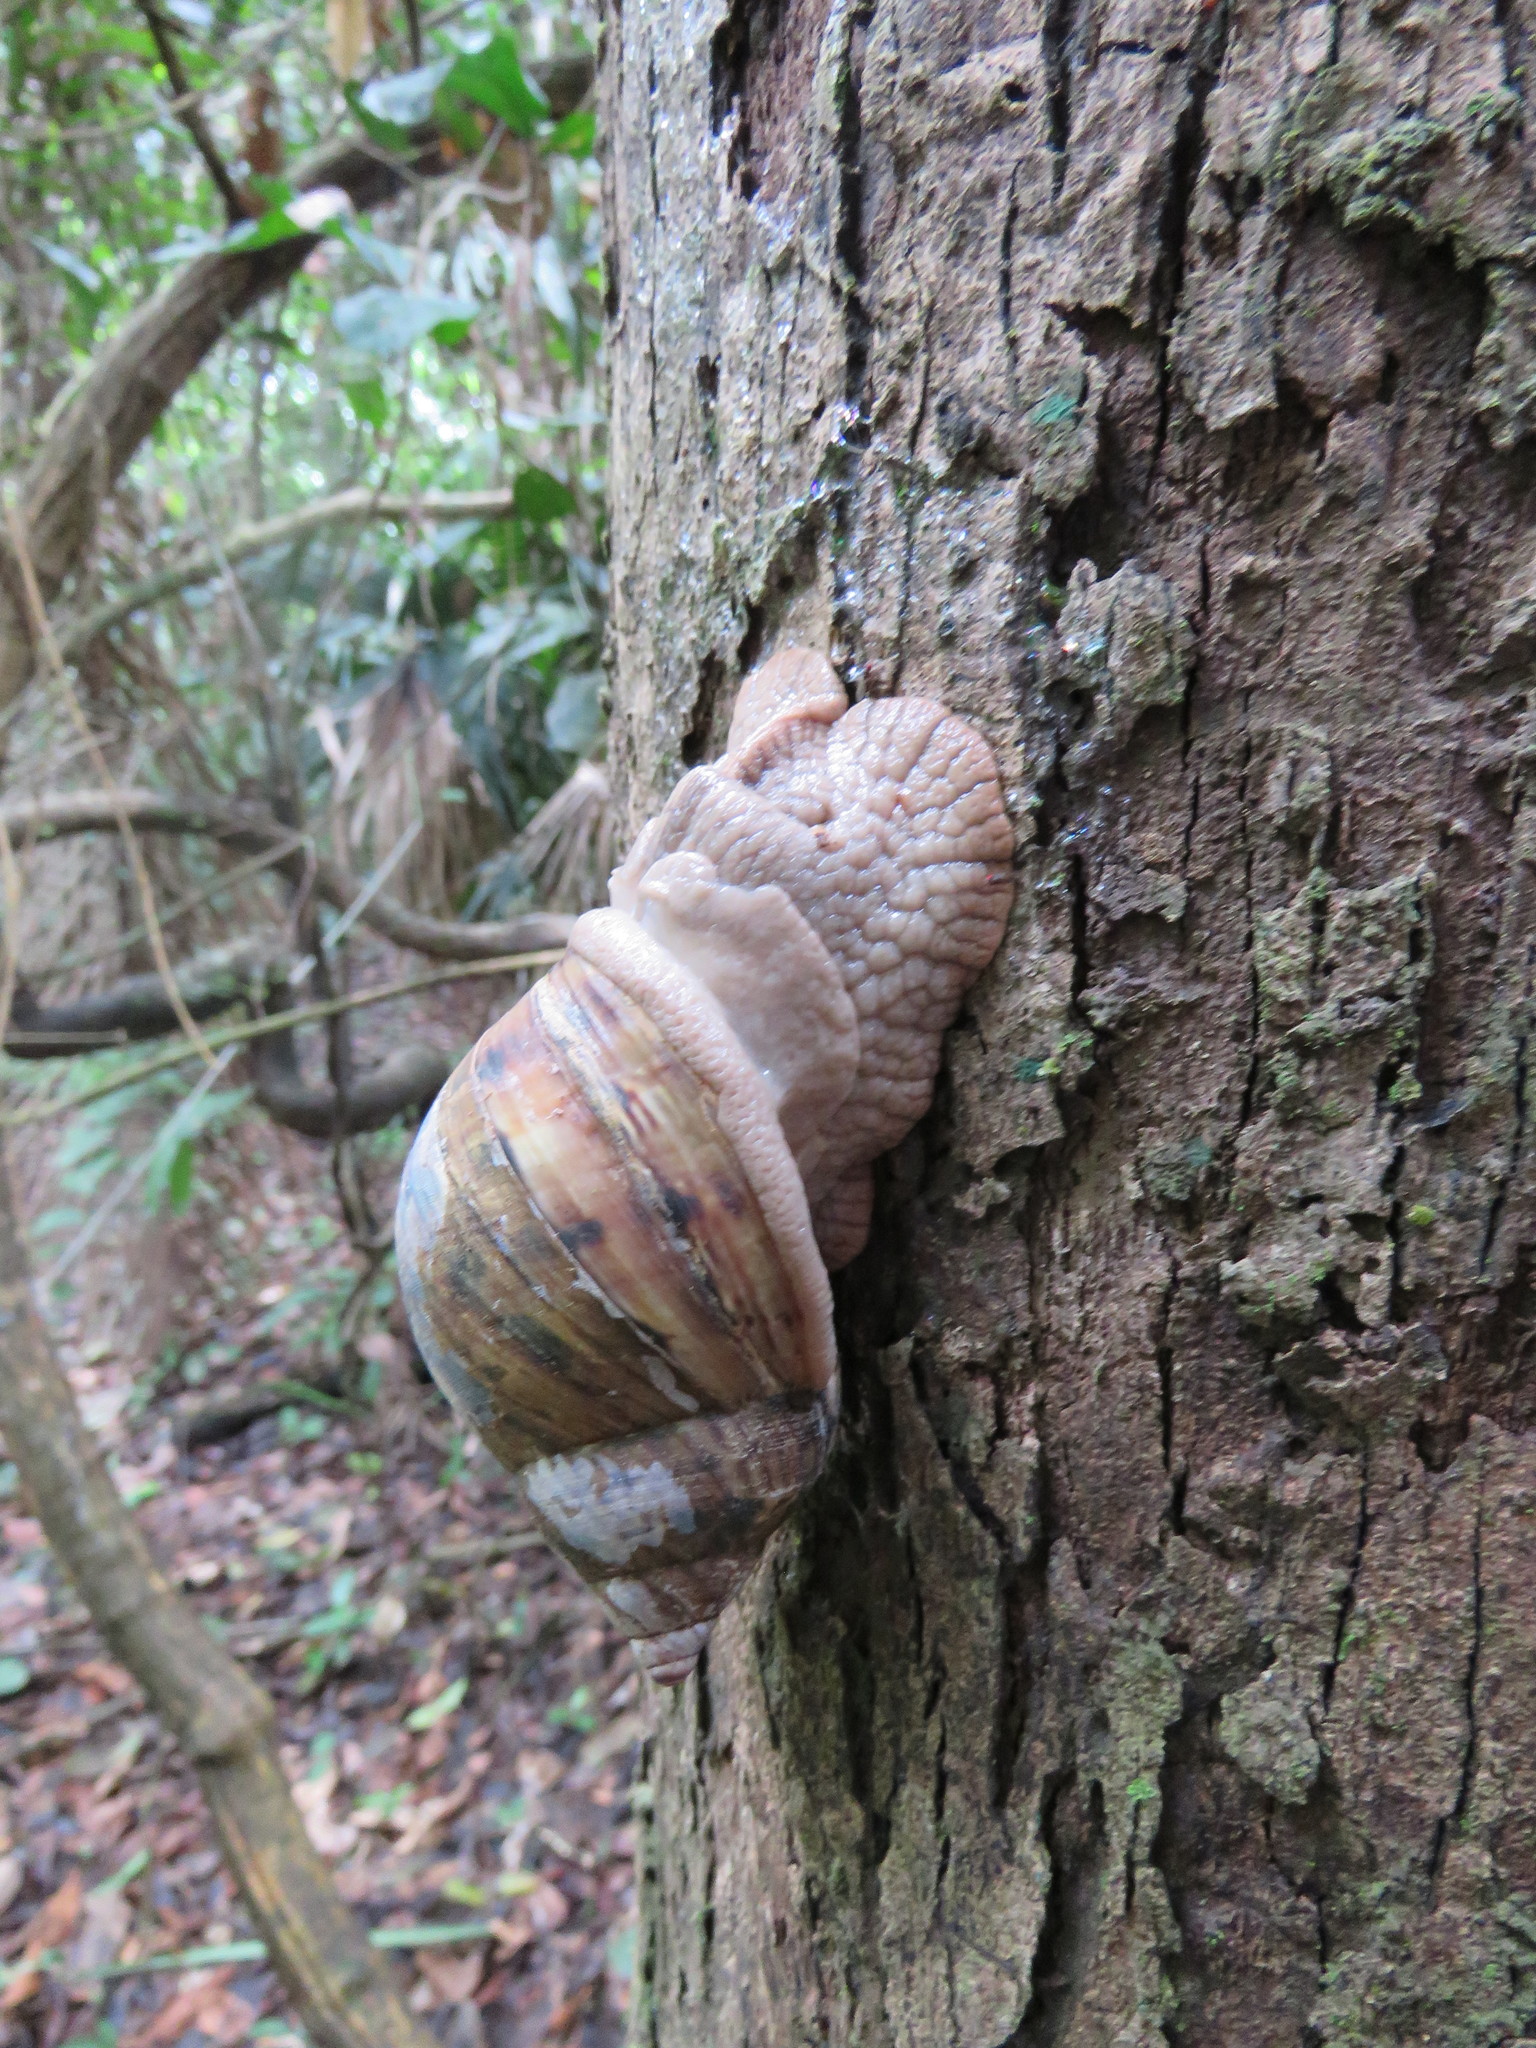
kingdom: Animalia
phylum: Mollusca
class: Gastropoda
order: Stylommatophora
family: Orthalicidae
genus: Sultana
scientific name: Sultana sultana
